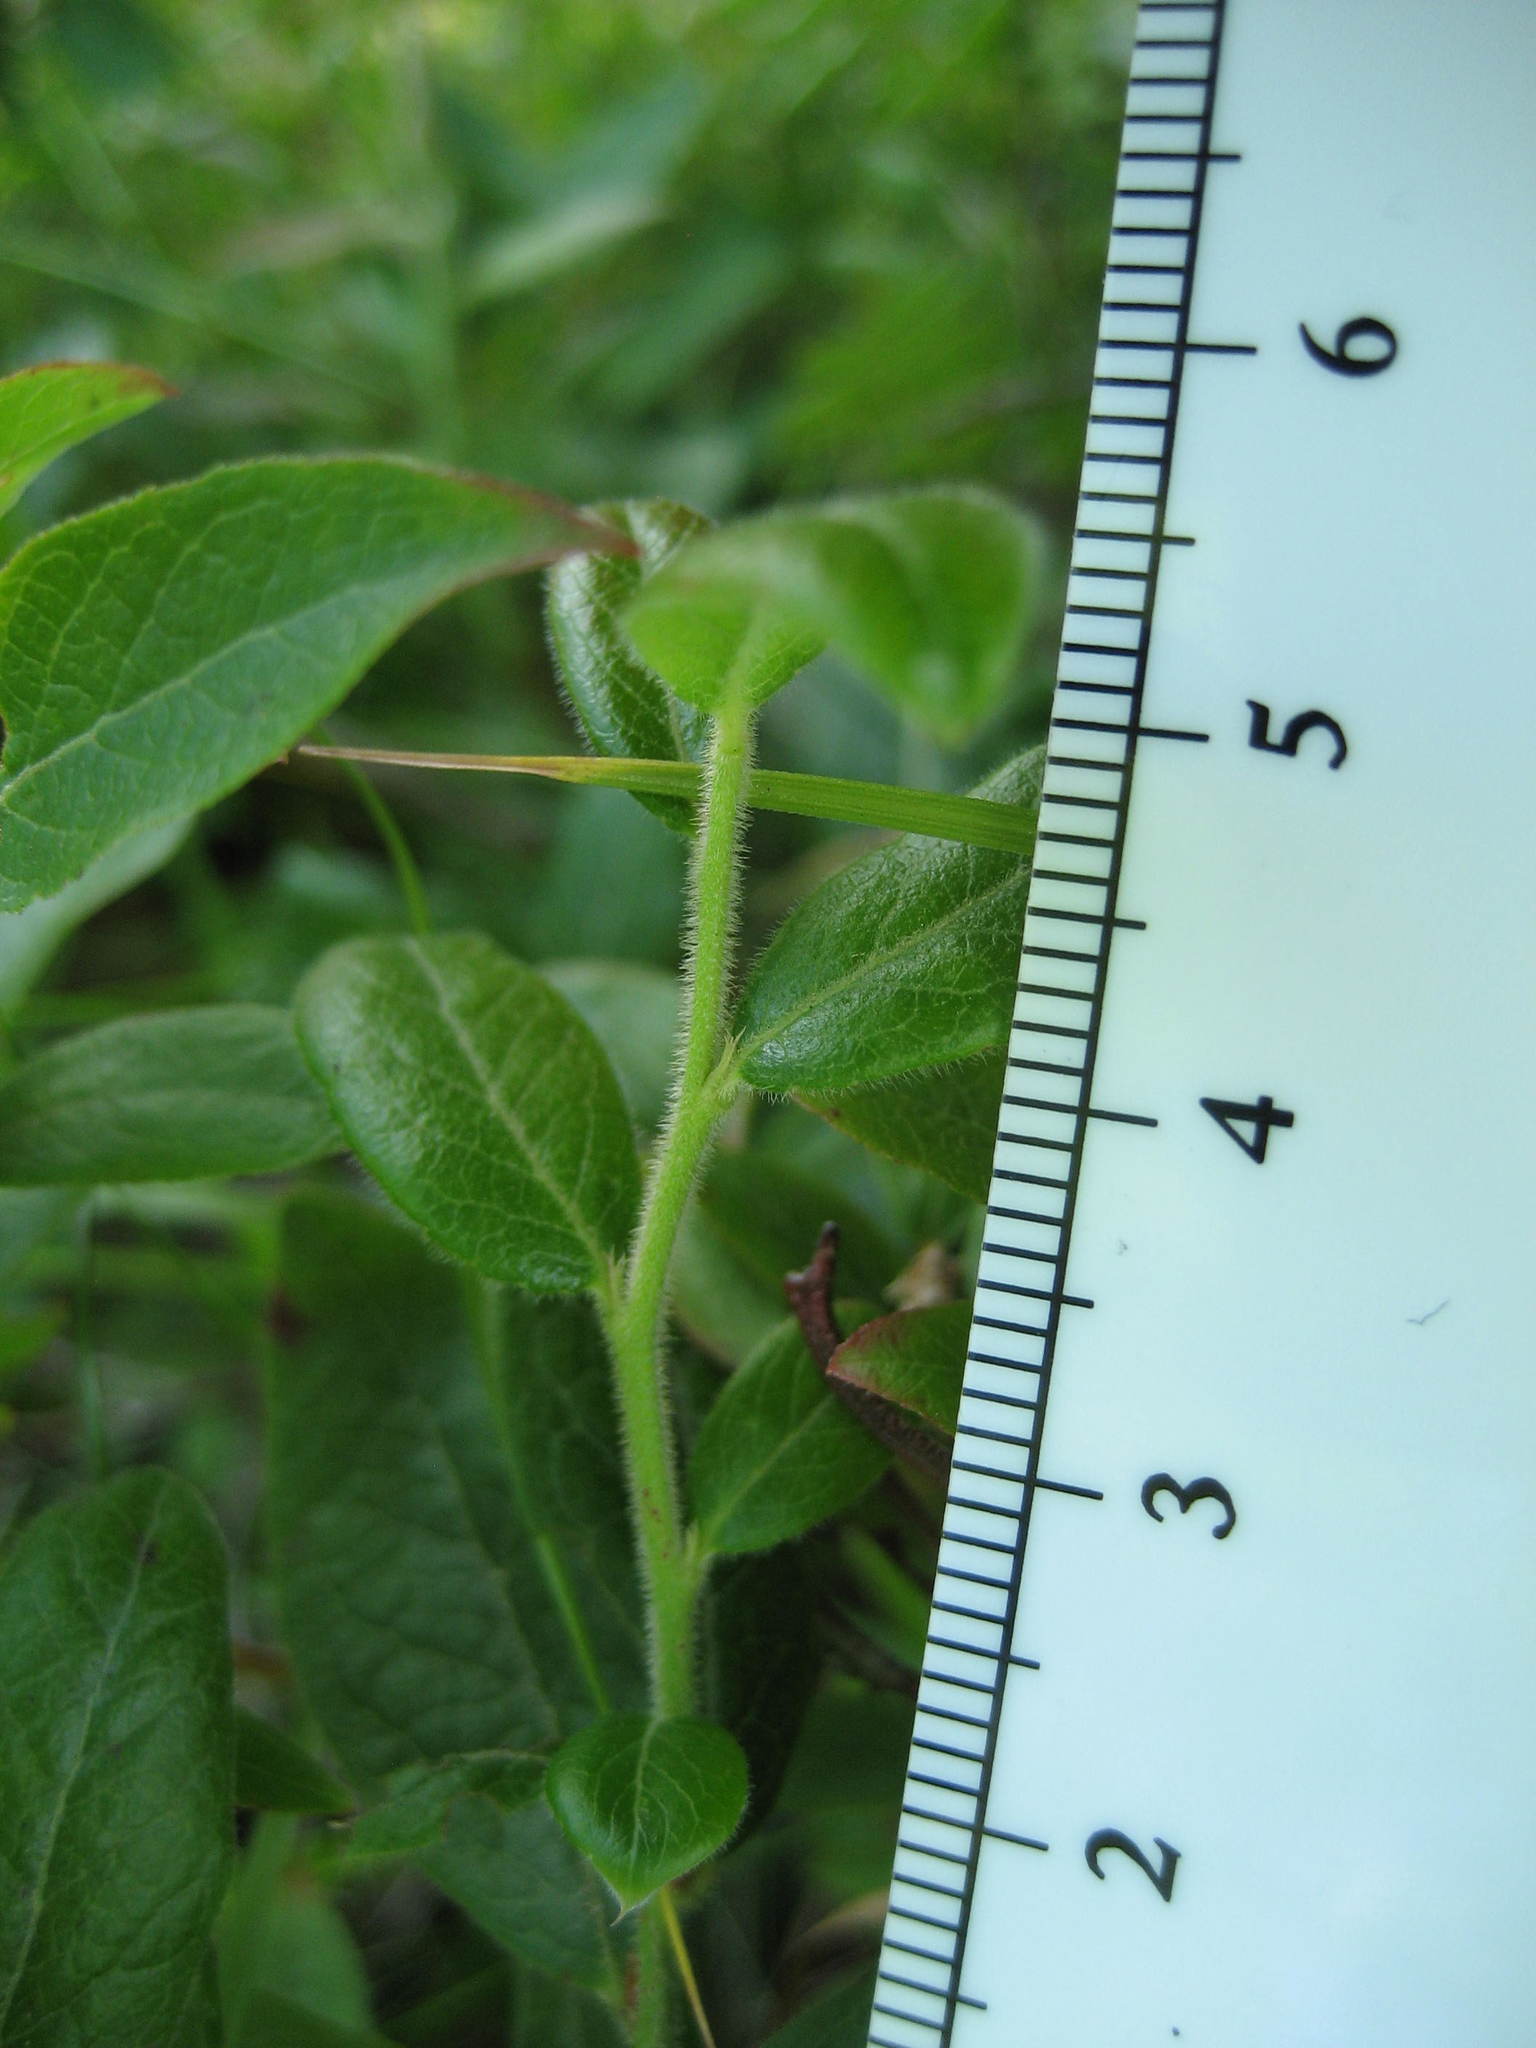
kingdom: Plantae
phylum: Tracheophyta
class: Magnoliopsida
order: Ericales
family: Ericaceae
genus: Vaccinium
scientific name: Vaccinium myrtilloides
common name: Canada blueberry
